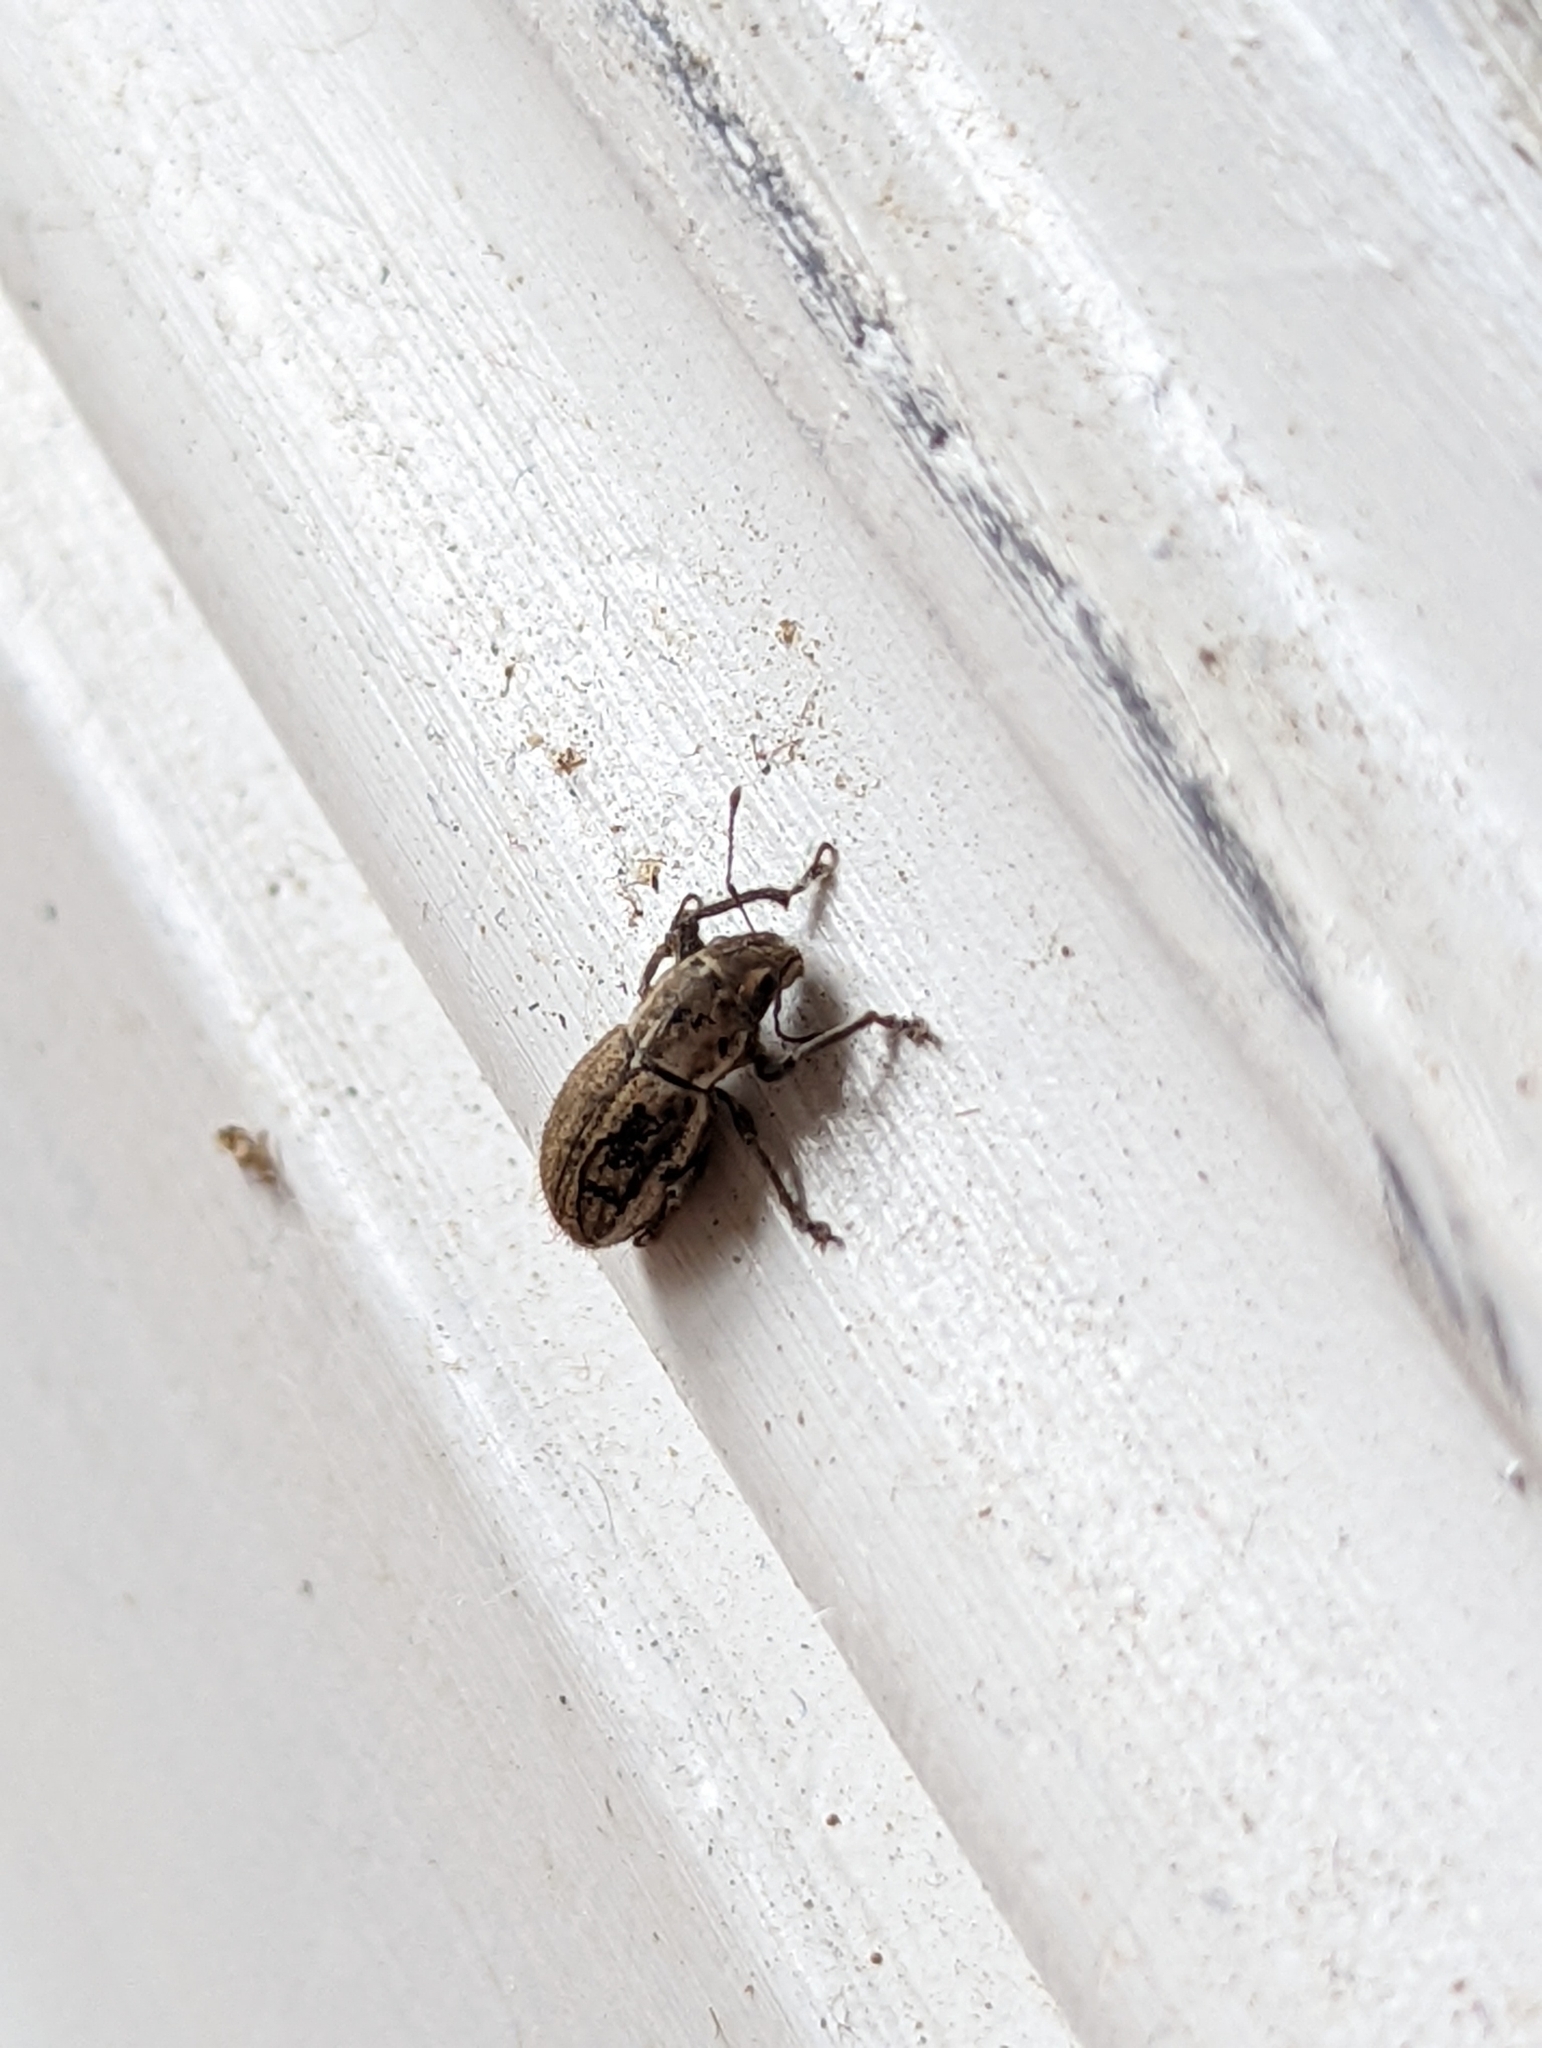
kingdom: Animalia
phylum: Arthropoda
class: Insecta
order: Coleoptera
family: Curculionidae
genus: Naupactus
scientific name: Naupactus peregrinus
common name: Whitefringed beetle
